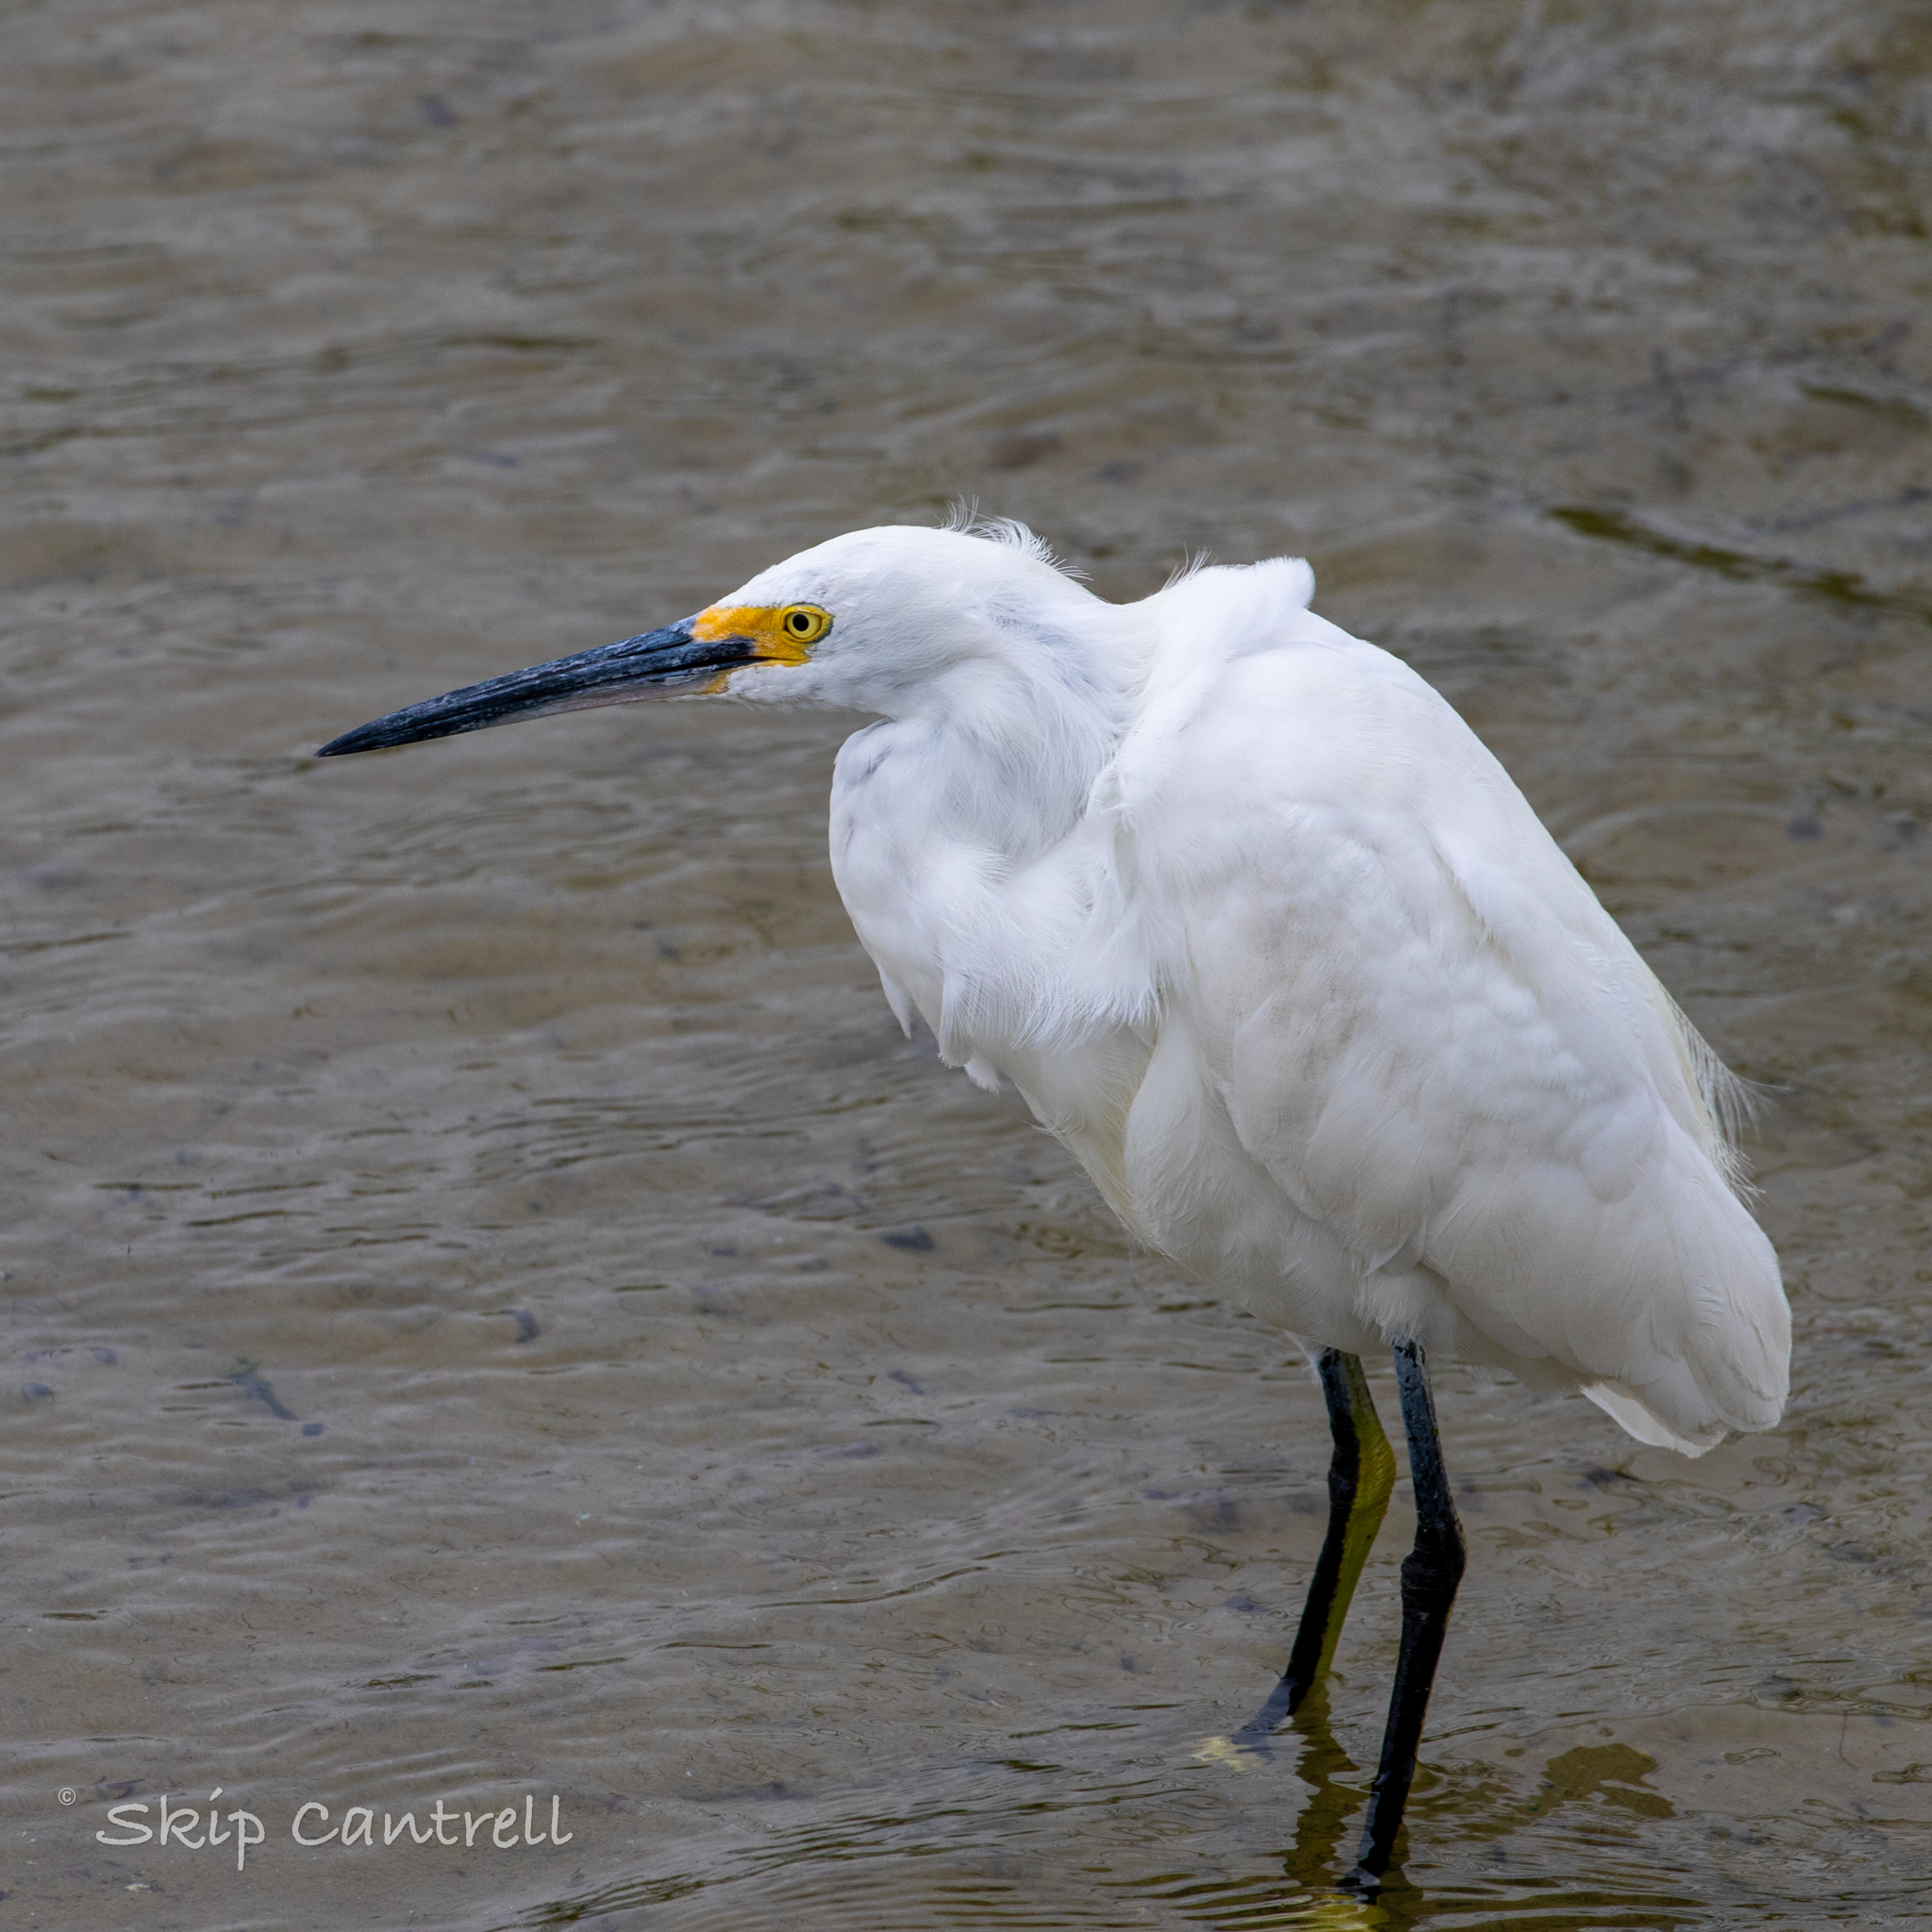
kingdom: Animalia
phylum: Chordata
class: Aves
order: Pelecaniformes
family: Ardeidae
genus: Egretta
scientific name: Egretta thula
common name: Snowy egret
